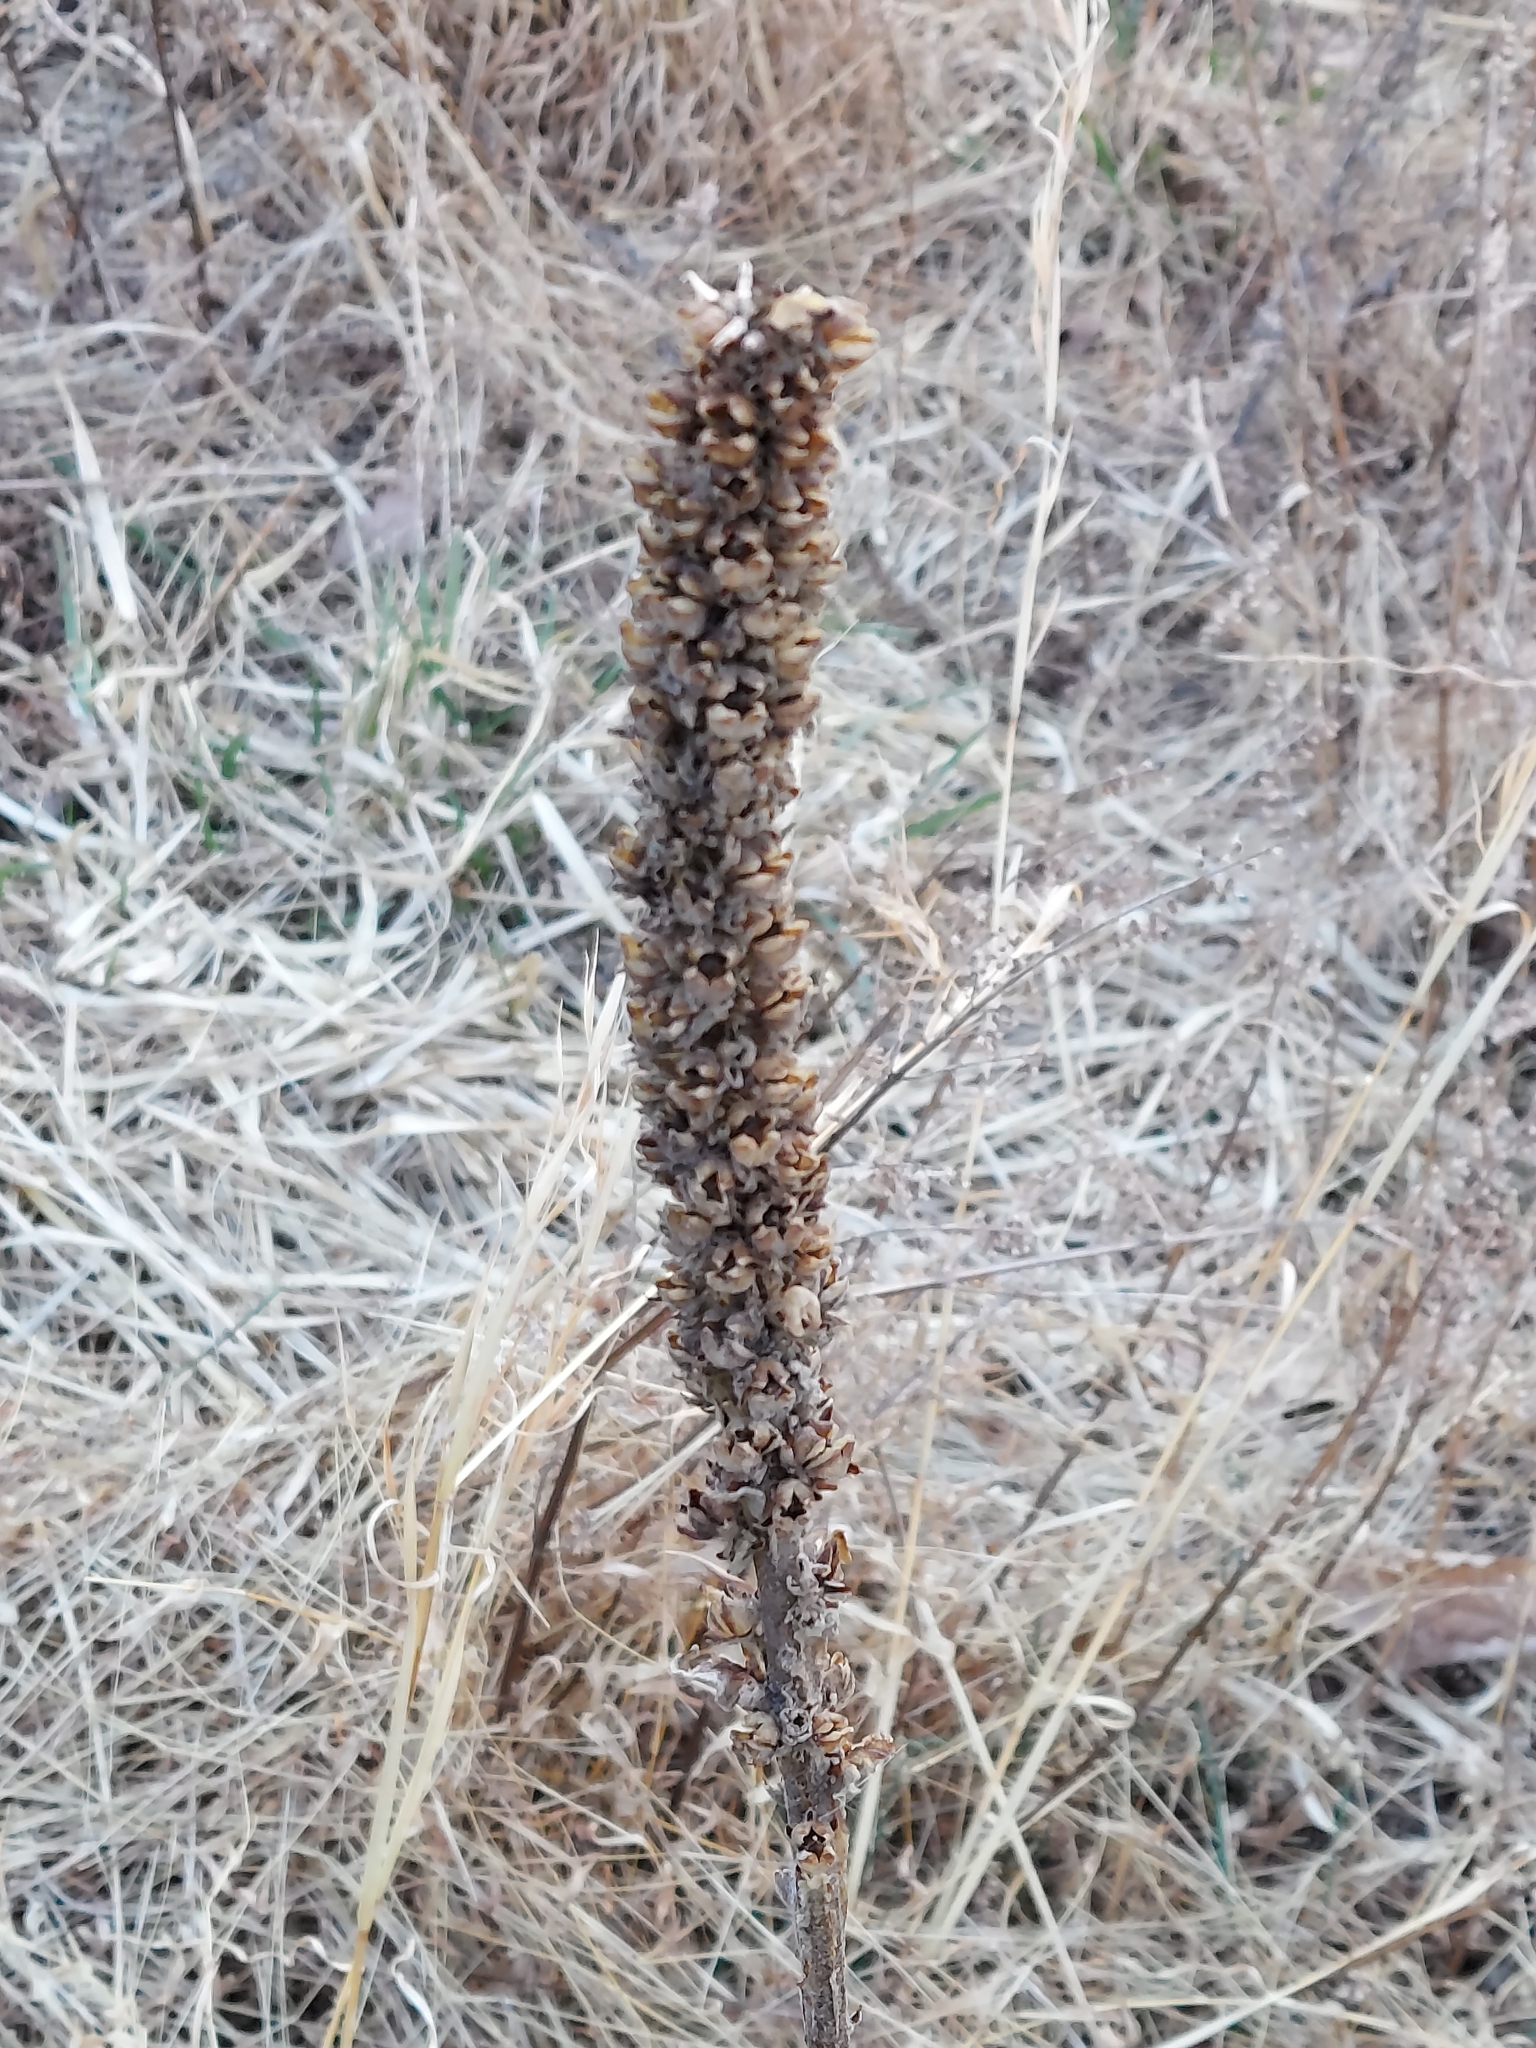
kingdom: Plantae
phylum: Tracheophyta
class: Magnoliopsida
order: Lamiales
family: Scrophulariaceae
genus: Verbascum
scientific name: Verbascum thapsus
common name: Common mullein
